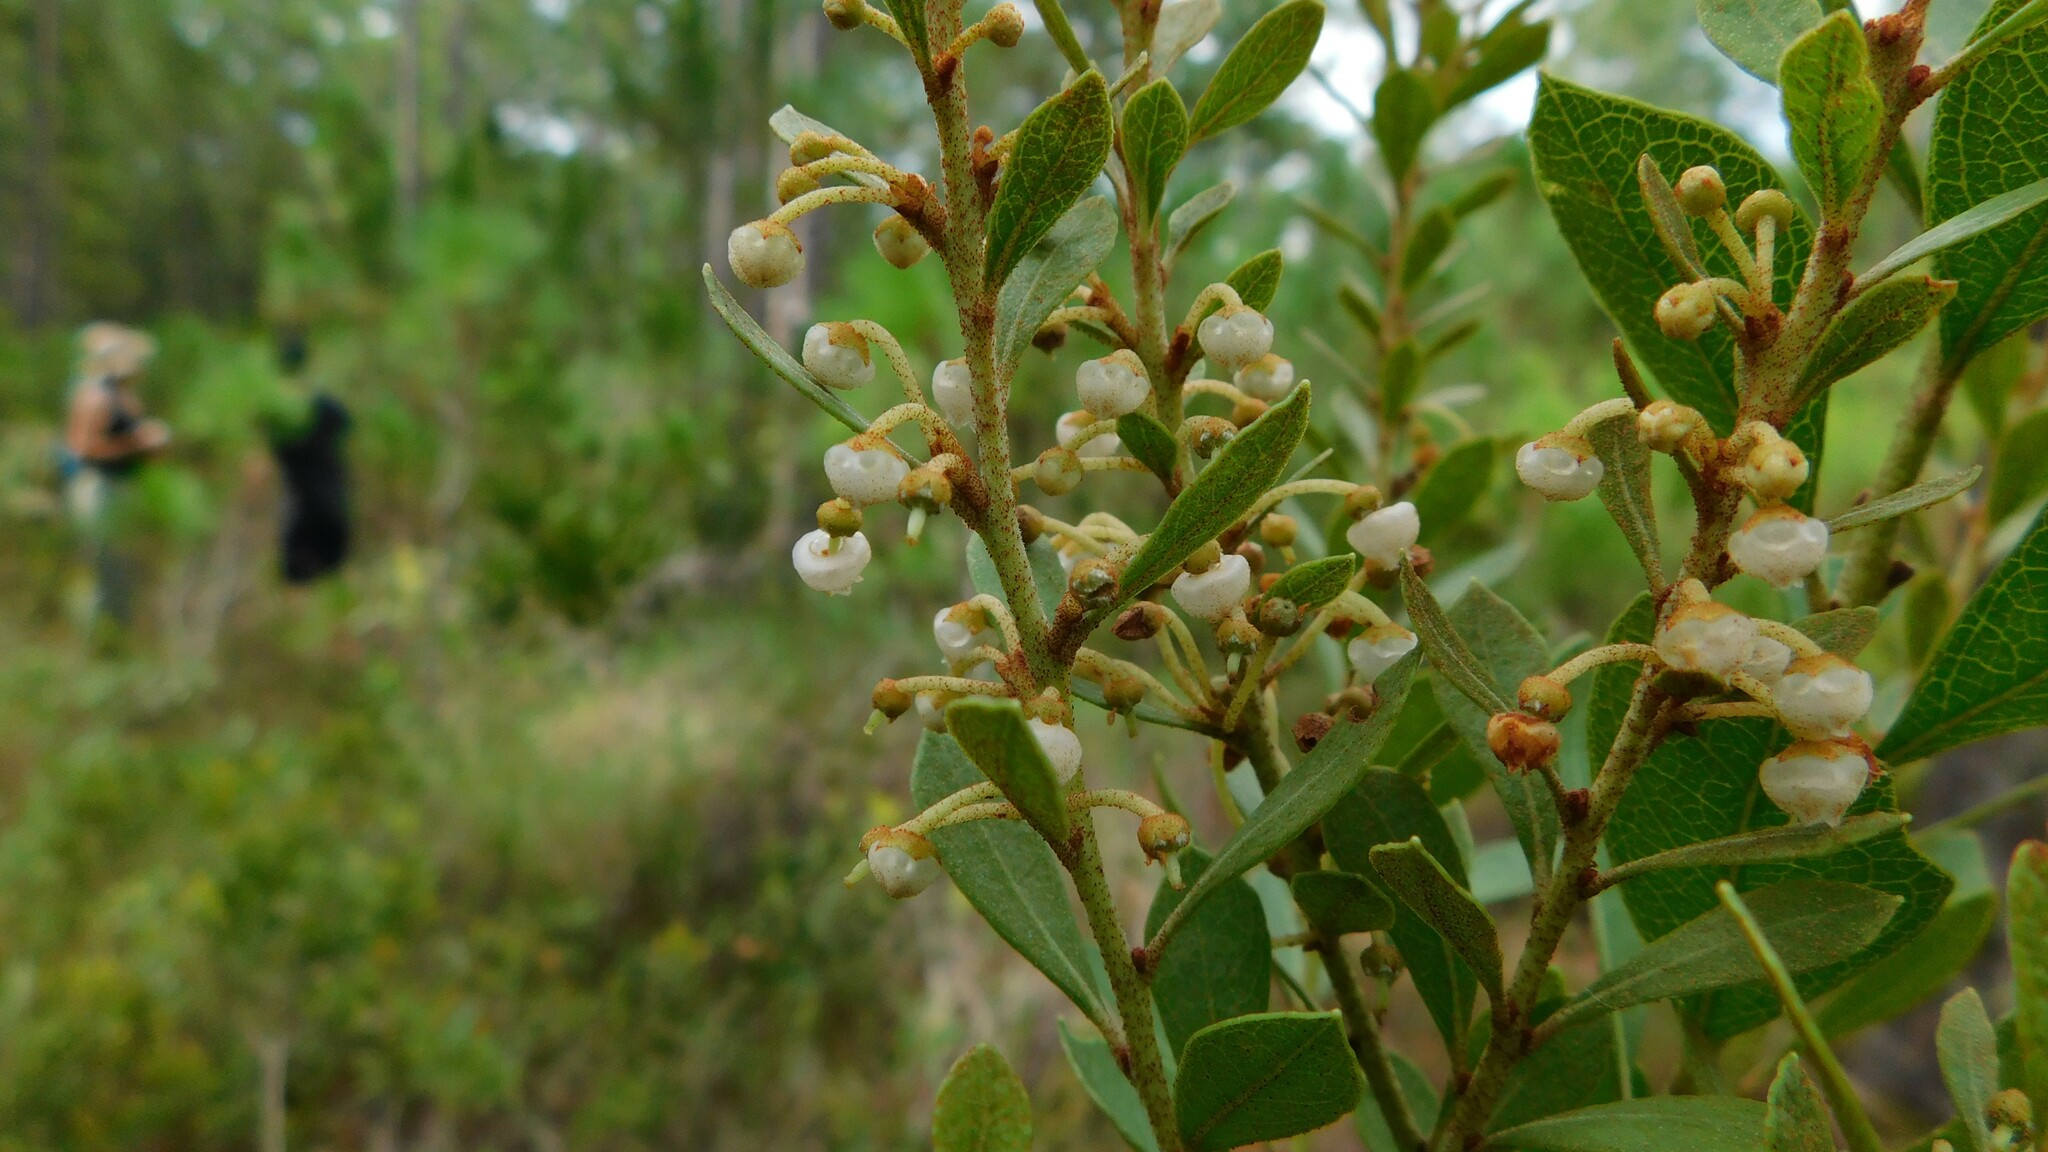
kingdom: Plantae
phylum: Tracheophyta
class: Magnoliopsida
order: Ericales
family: Ericaceae
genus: Lyonia
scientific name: Lyonia fruticosa
